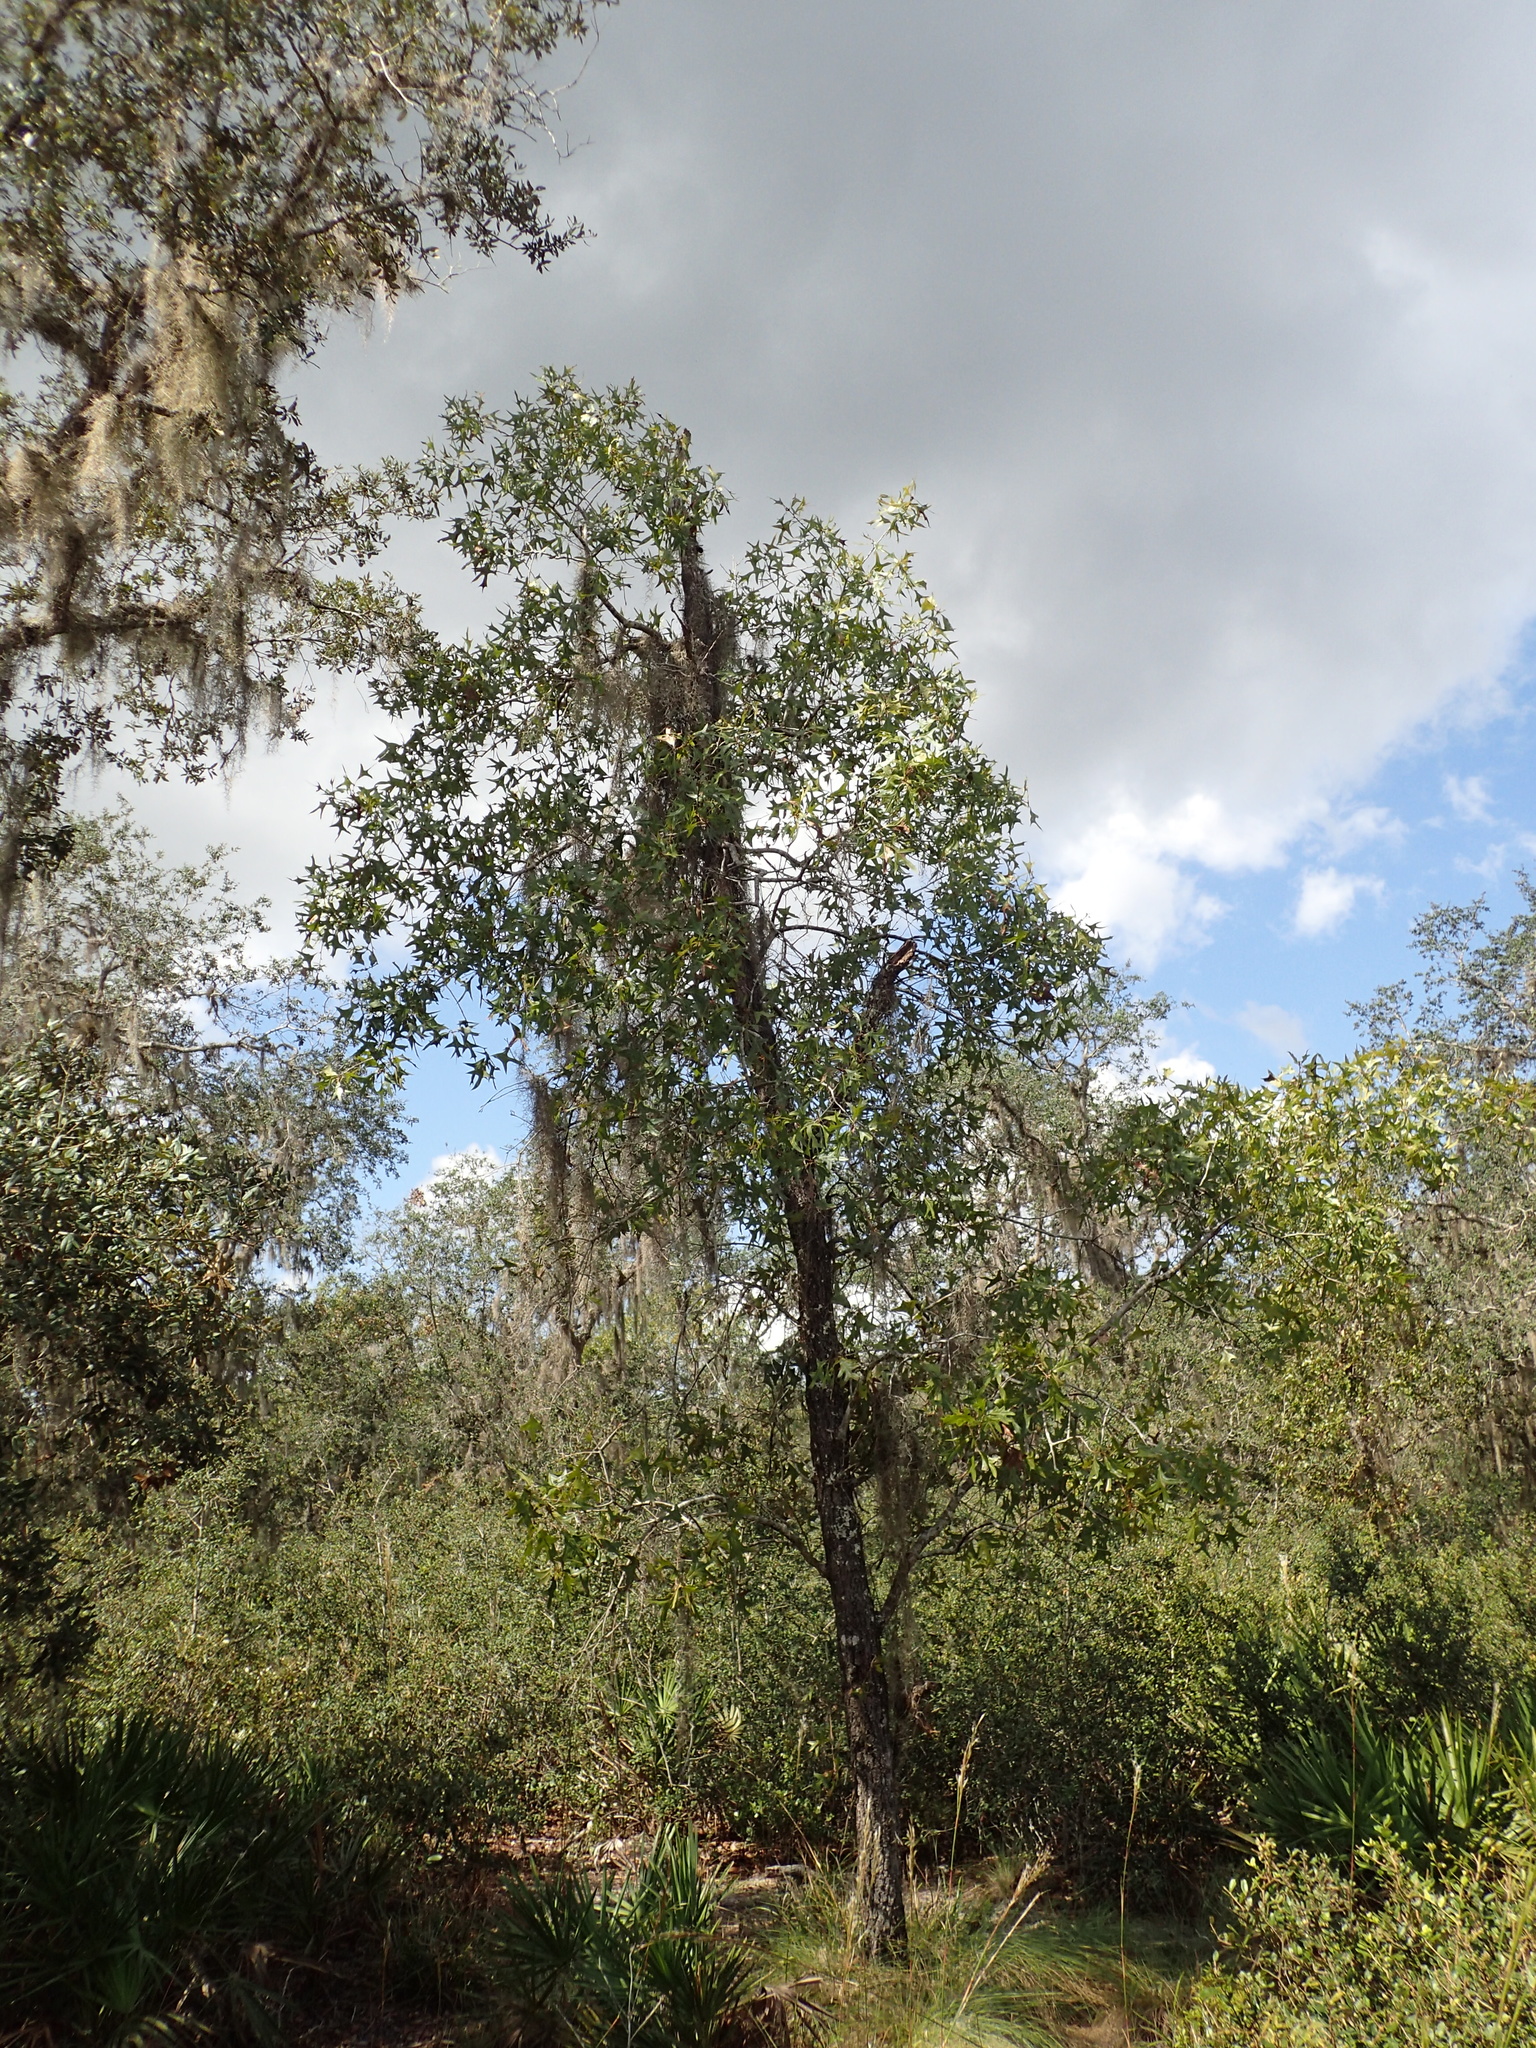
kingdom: Plantae
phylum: Tracheophyta
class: Magnoliopsida
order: Fagales
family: Fagaceae
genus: Quercus
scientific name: Quercus laevis
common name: Turkey oak
